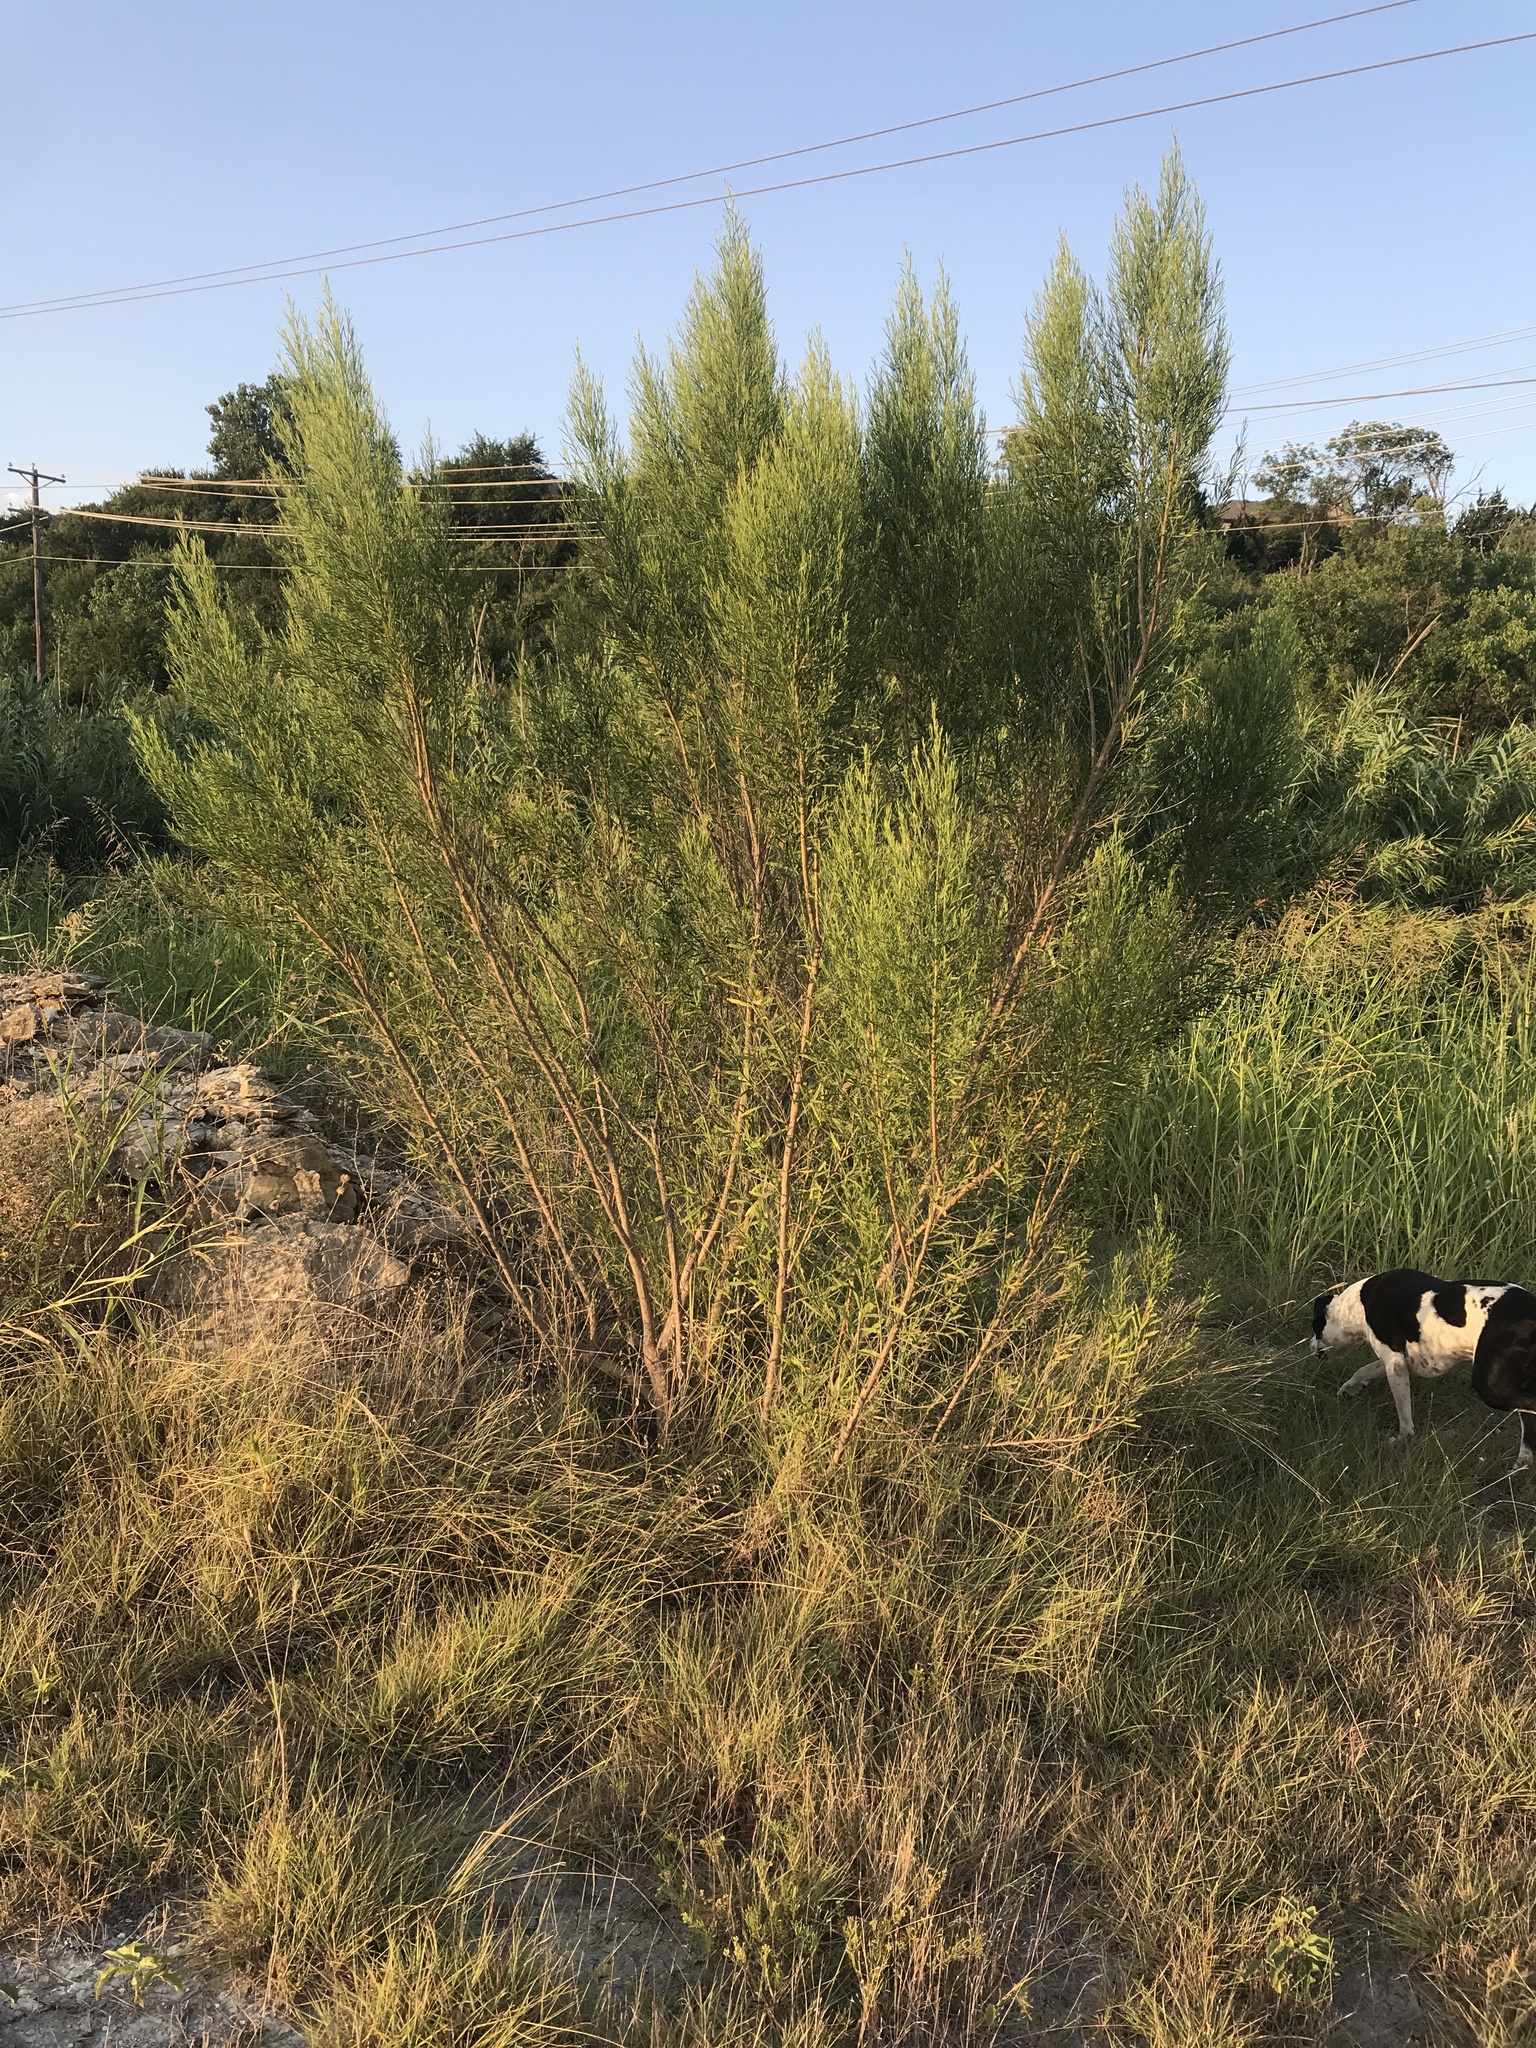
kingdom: Plantae
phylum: Tracheophyta
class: Magnoliopsida
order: Asterales
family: Asteraceae
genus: Baccharis
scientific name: Baccharis neglecta
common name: Roosevelt-weed
